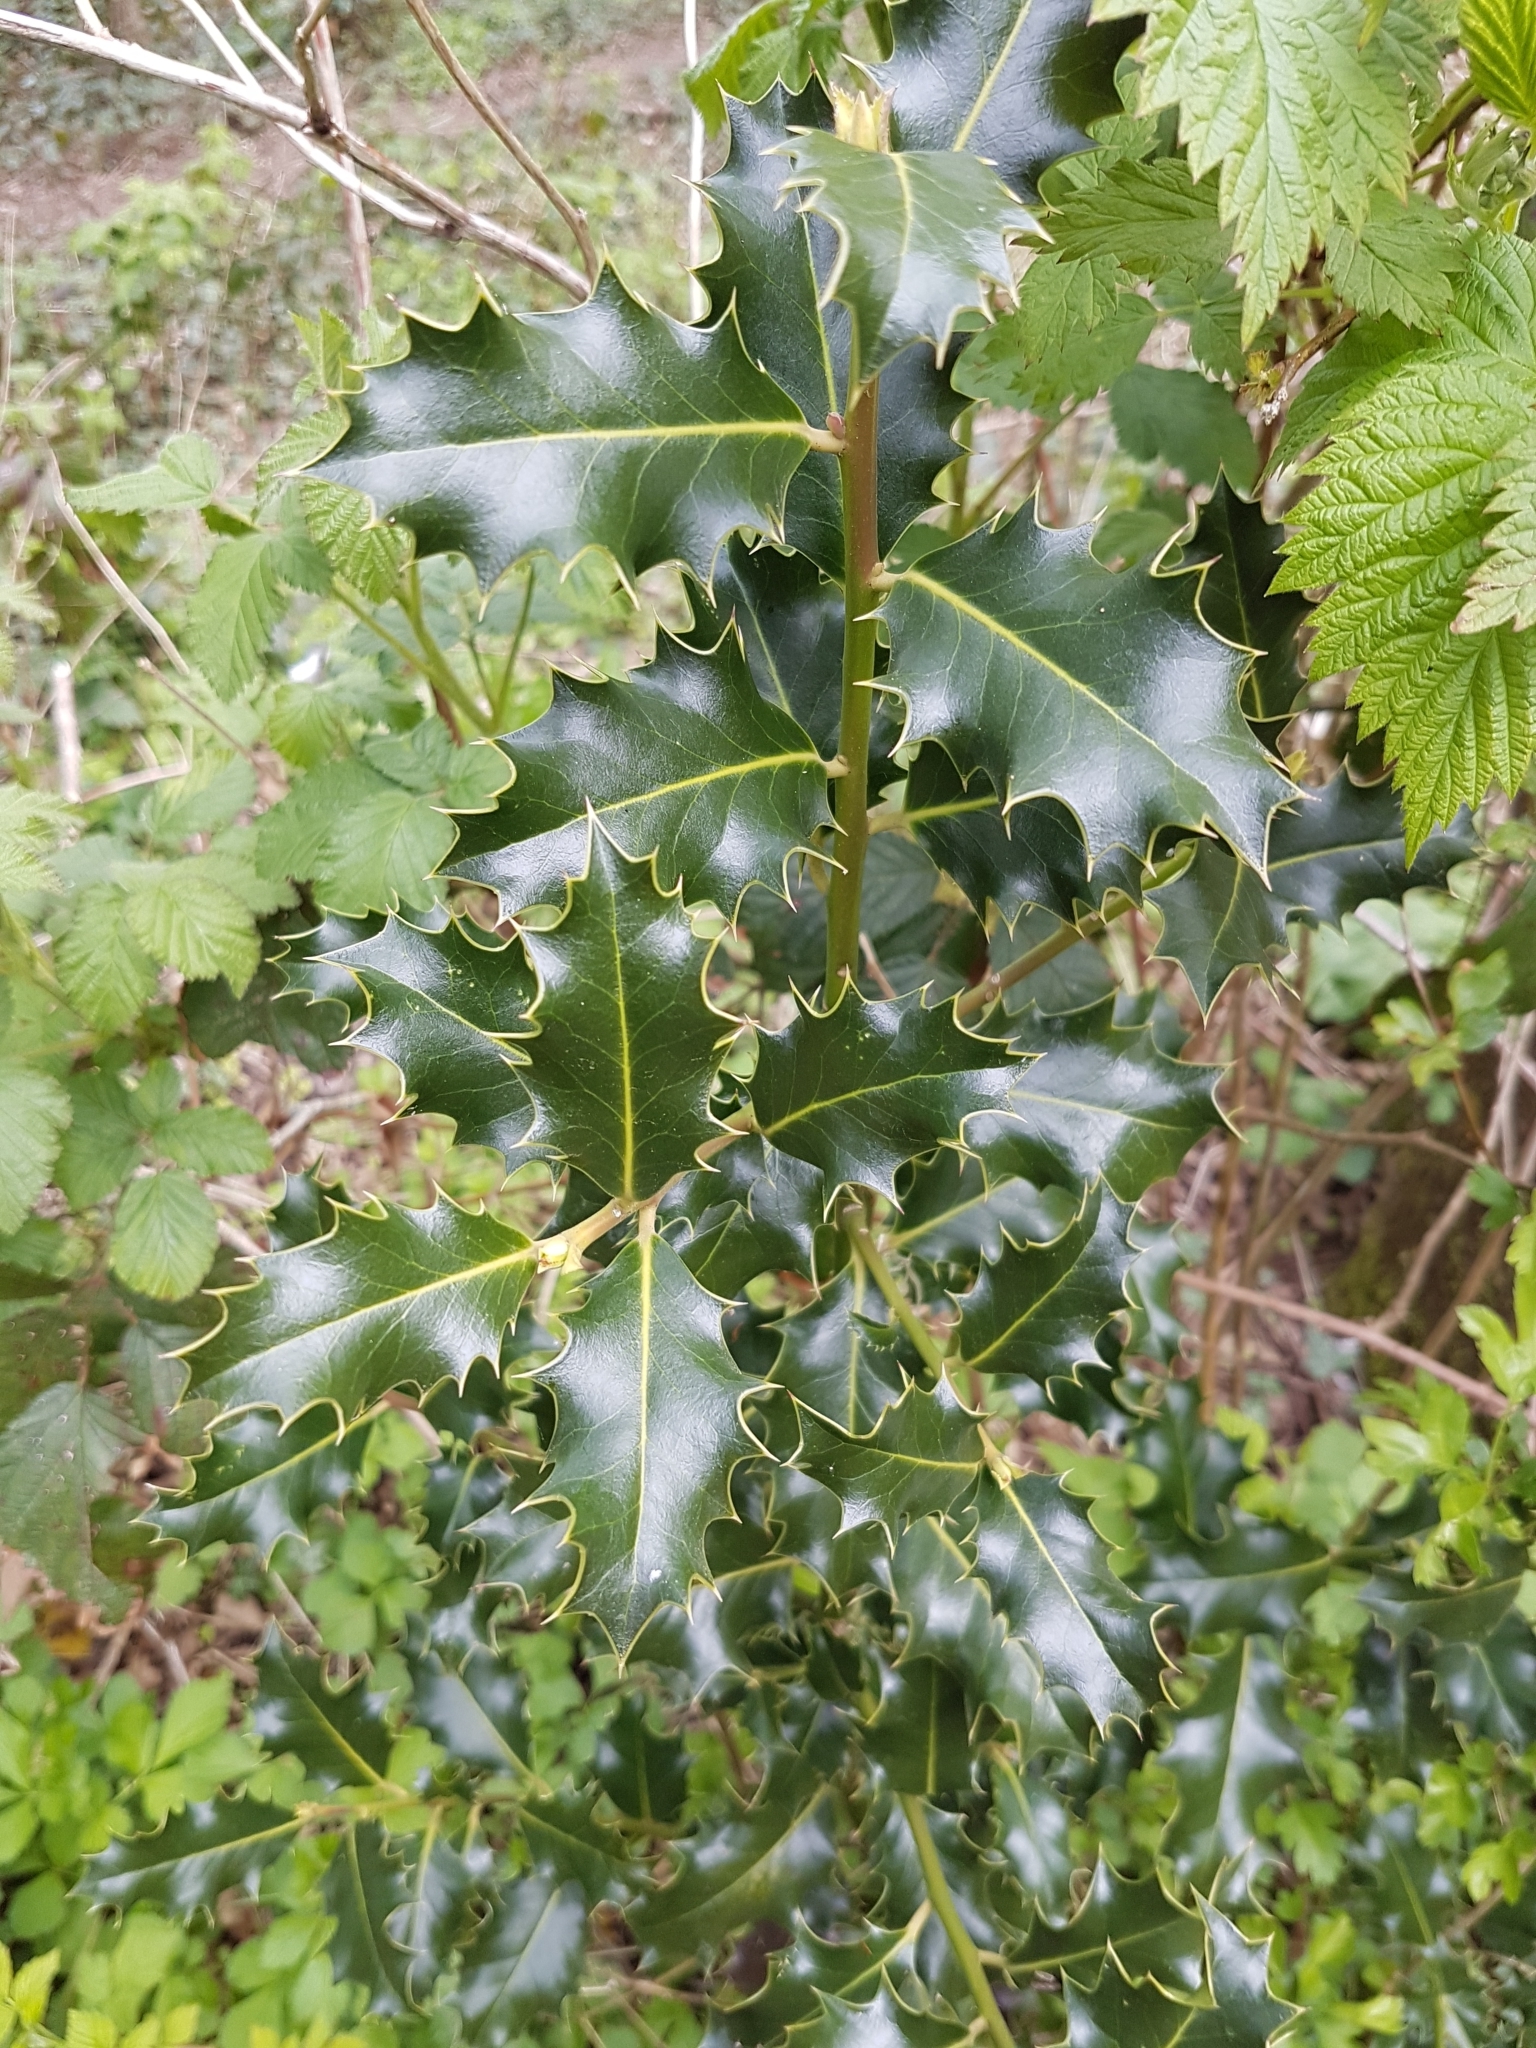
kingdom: Plantae
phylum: Tracheophyta
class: Magnoliopsida
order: Aquifoliales
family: Aquifoliaceae
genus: Ilex
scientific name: Ilex aquifolium
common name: English holly
